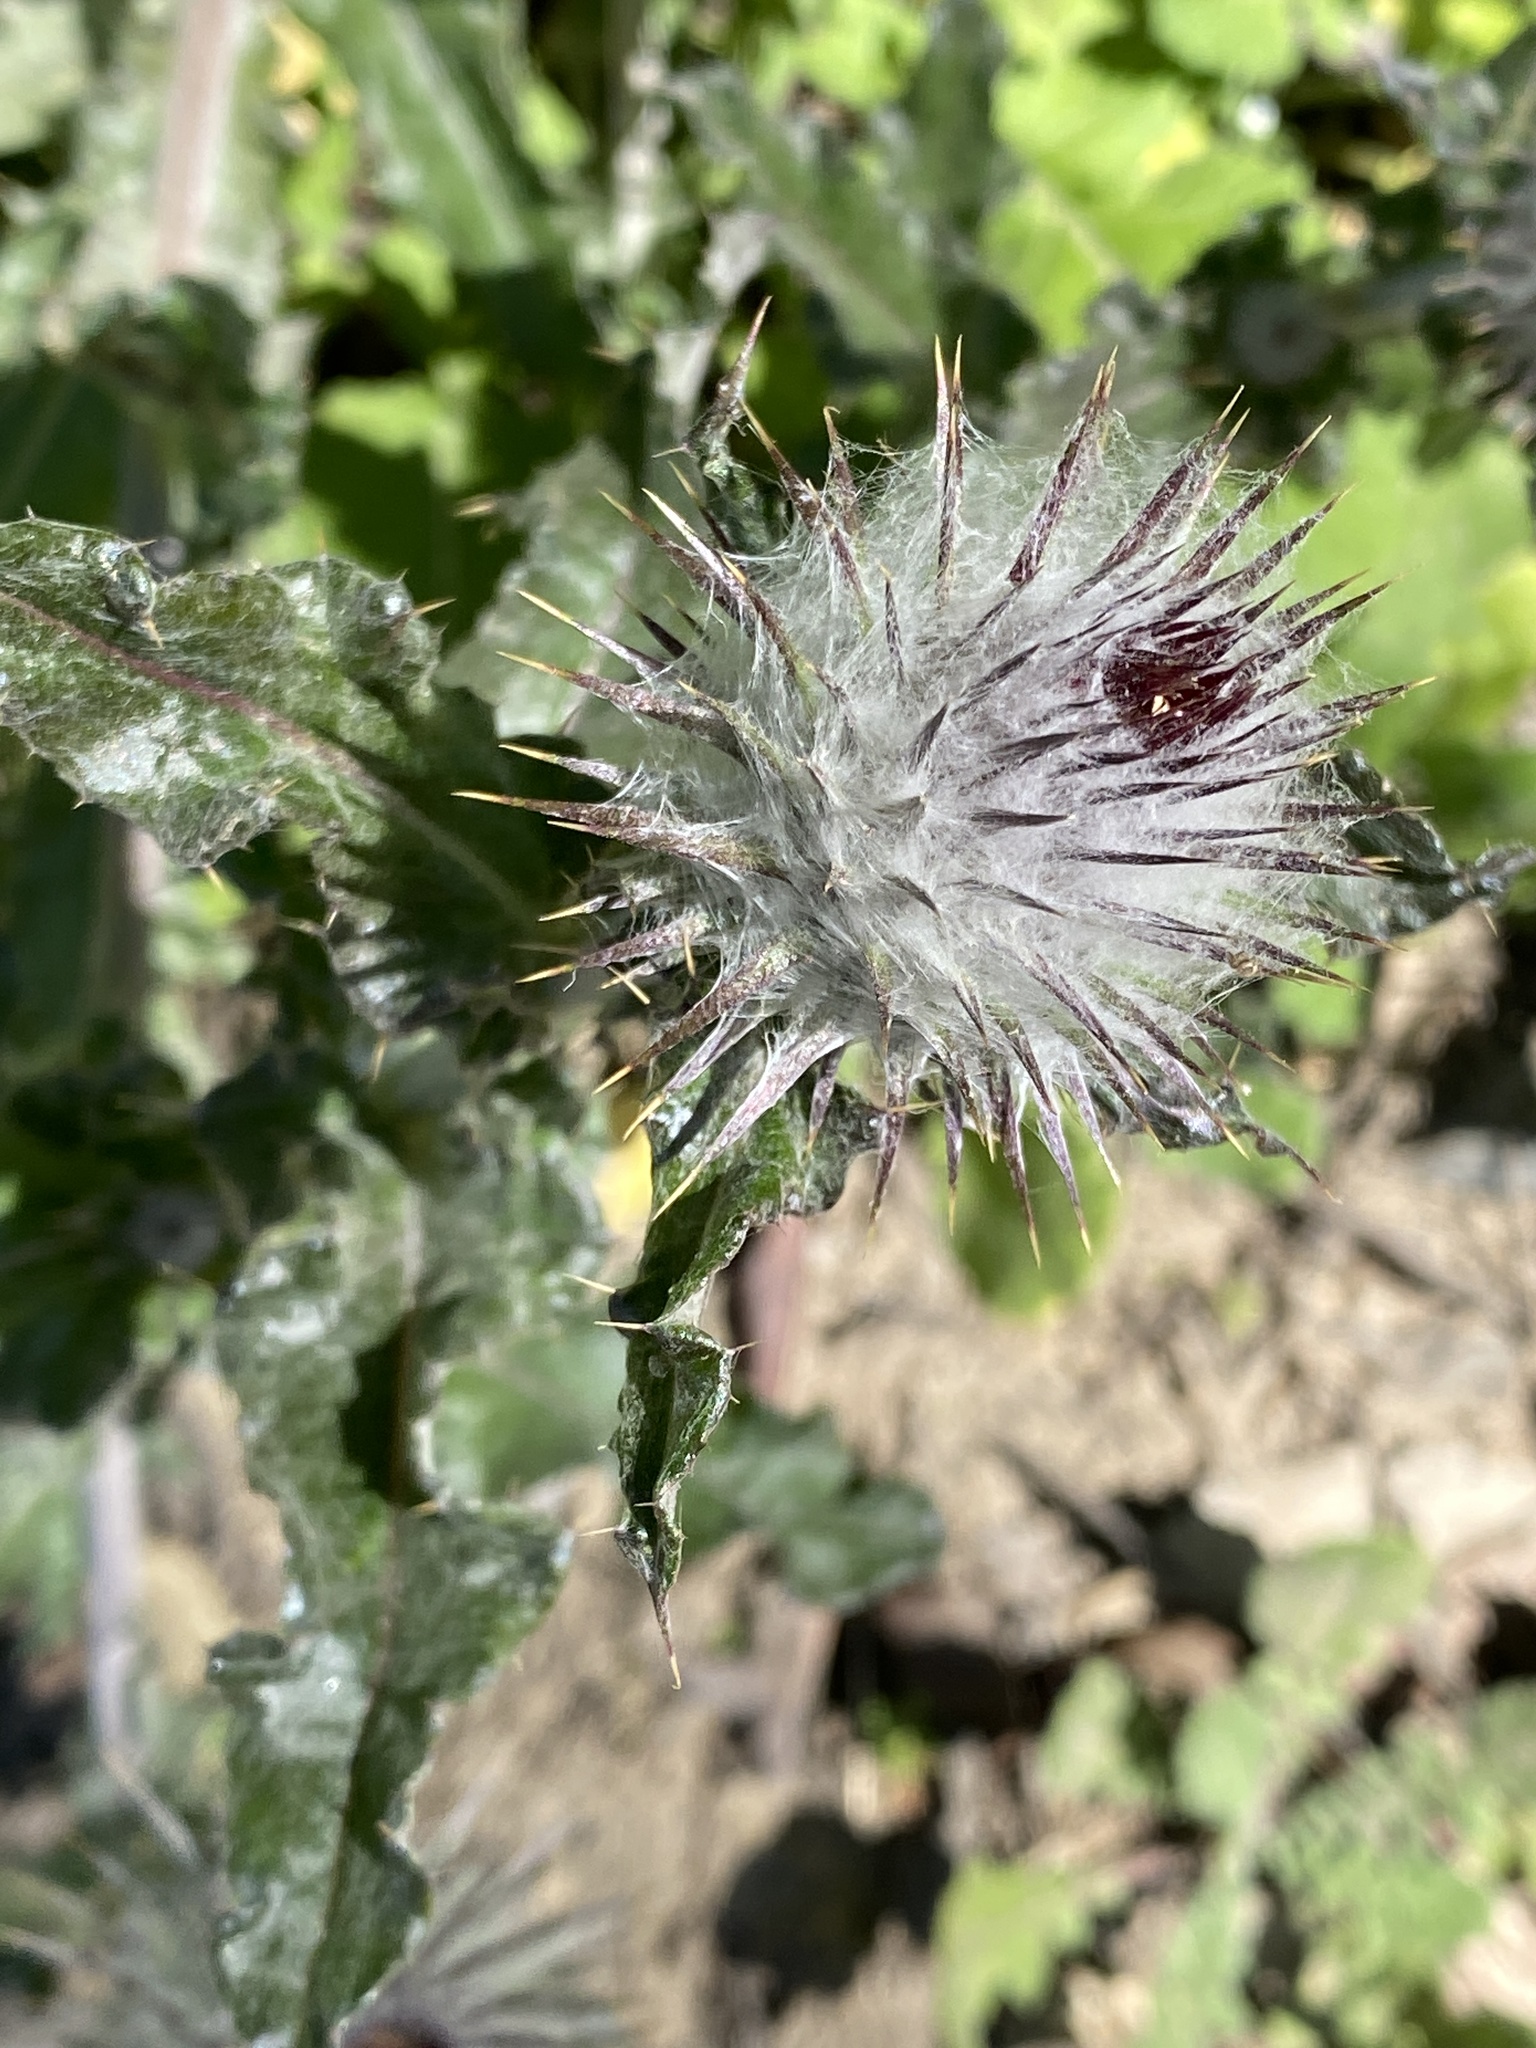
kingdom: Plantae
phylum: Tracheophyta
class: Magnoliopsida
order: Asterales
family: Asteraceae
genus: Cirsium
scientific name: Cirsium occidentale
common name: Western thistle
